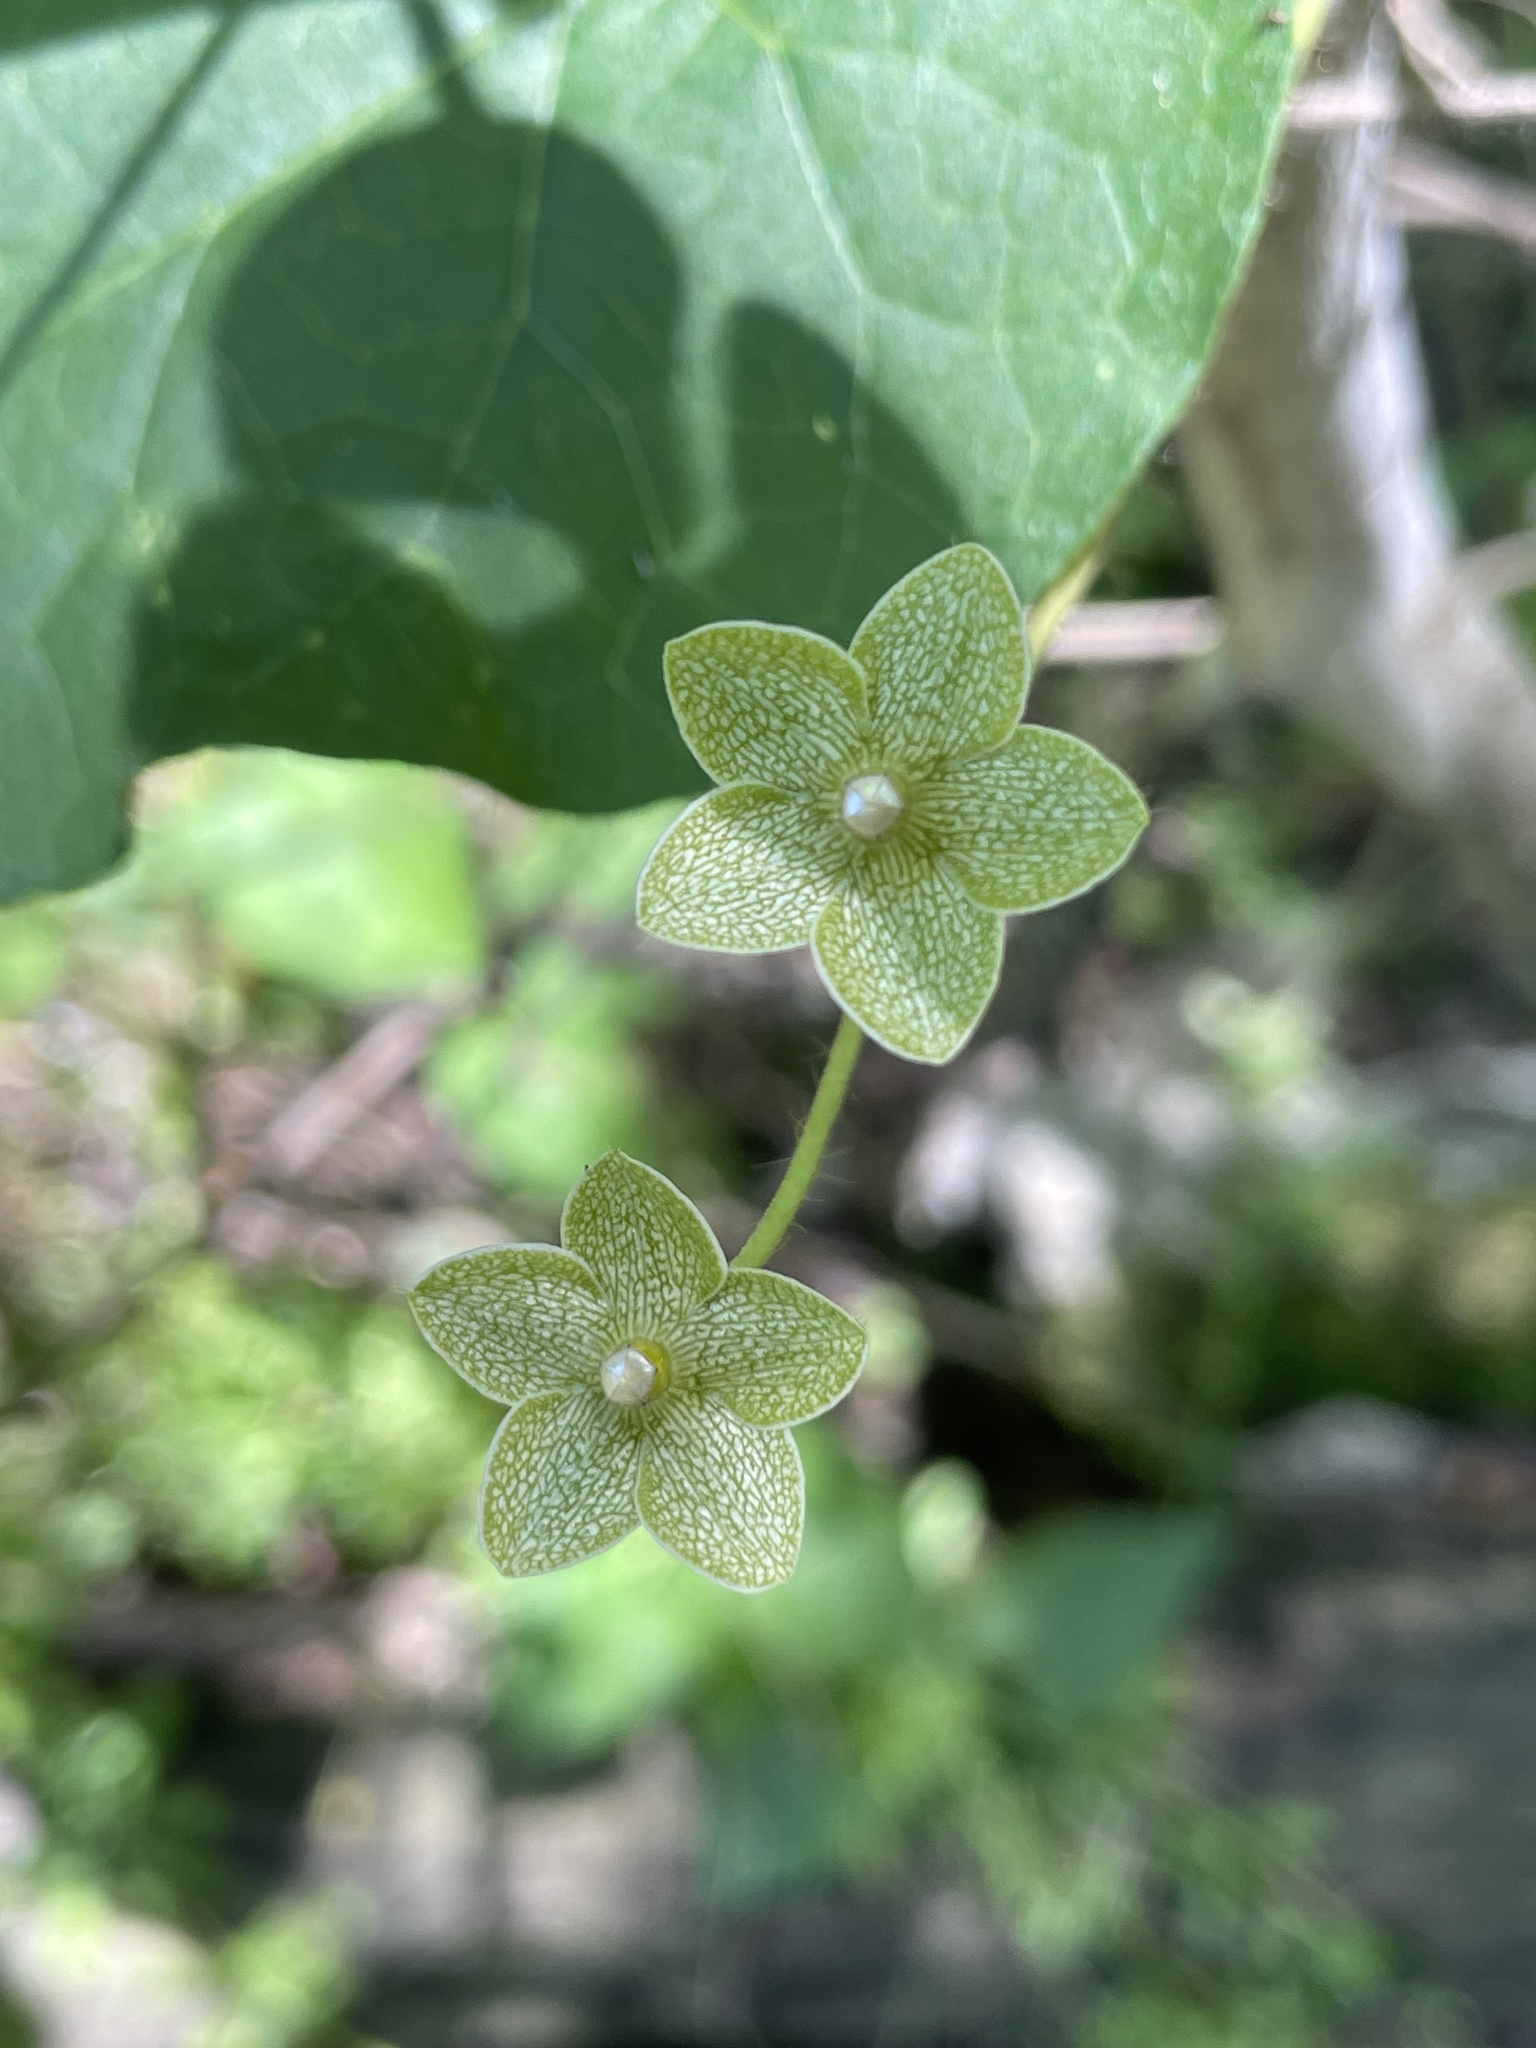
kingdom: Plantae
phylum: Tracheophyta
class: Magnoliopsida
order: Gentianales
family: Apocynaceae
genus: Dictyanthus
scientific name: Dictyanthus reticulatus
